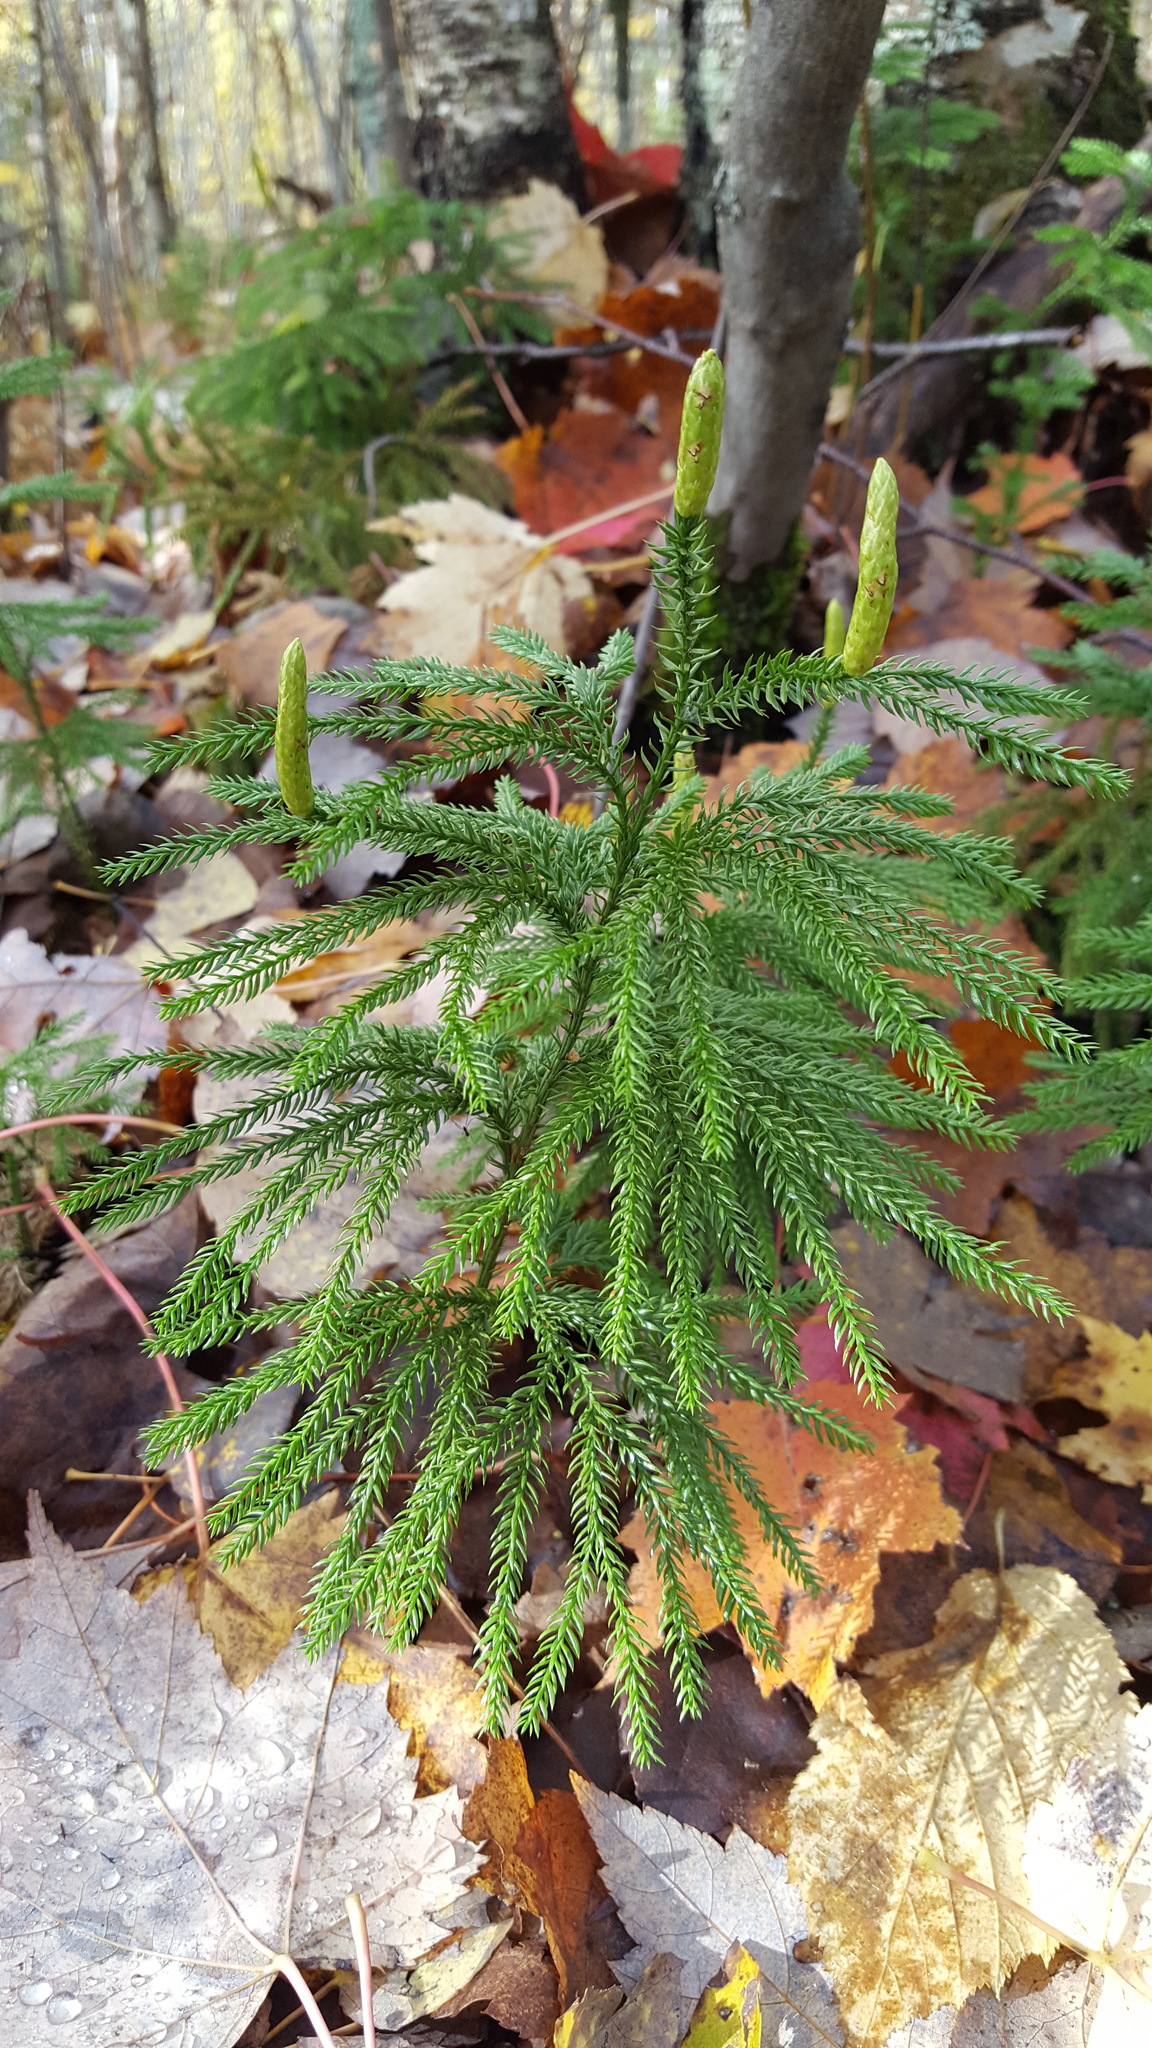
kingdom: Plantae
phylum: Tracheophyta
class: Lycopodiopsida
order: Lycopodiales
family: Lycopodiaceae
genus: Dendrolycopodium
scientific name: Dendrolycopodium dendroideum
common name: Northern tree-clubmoss
